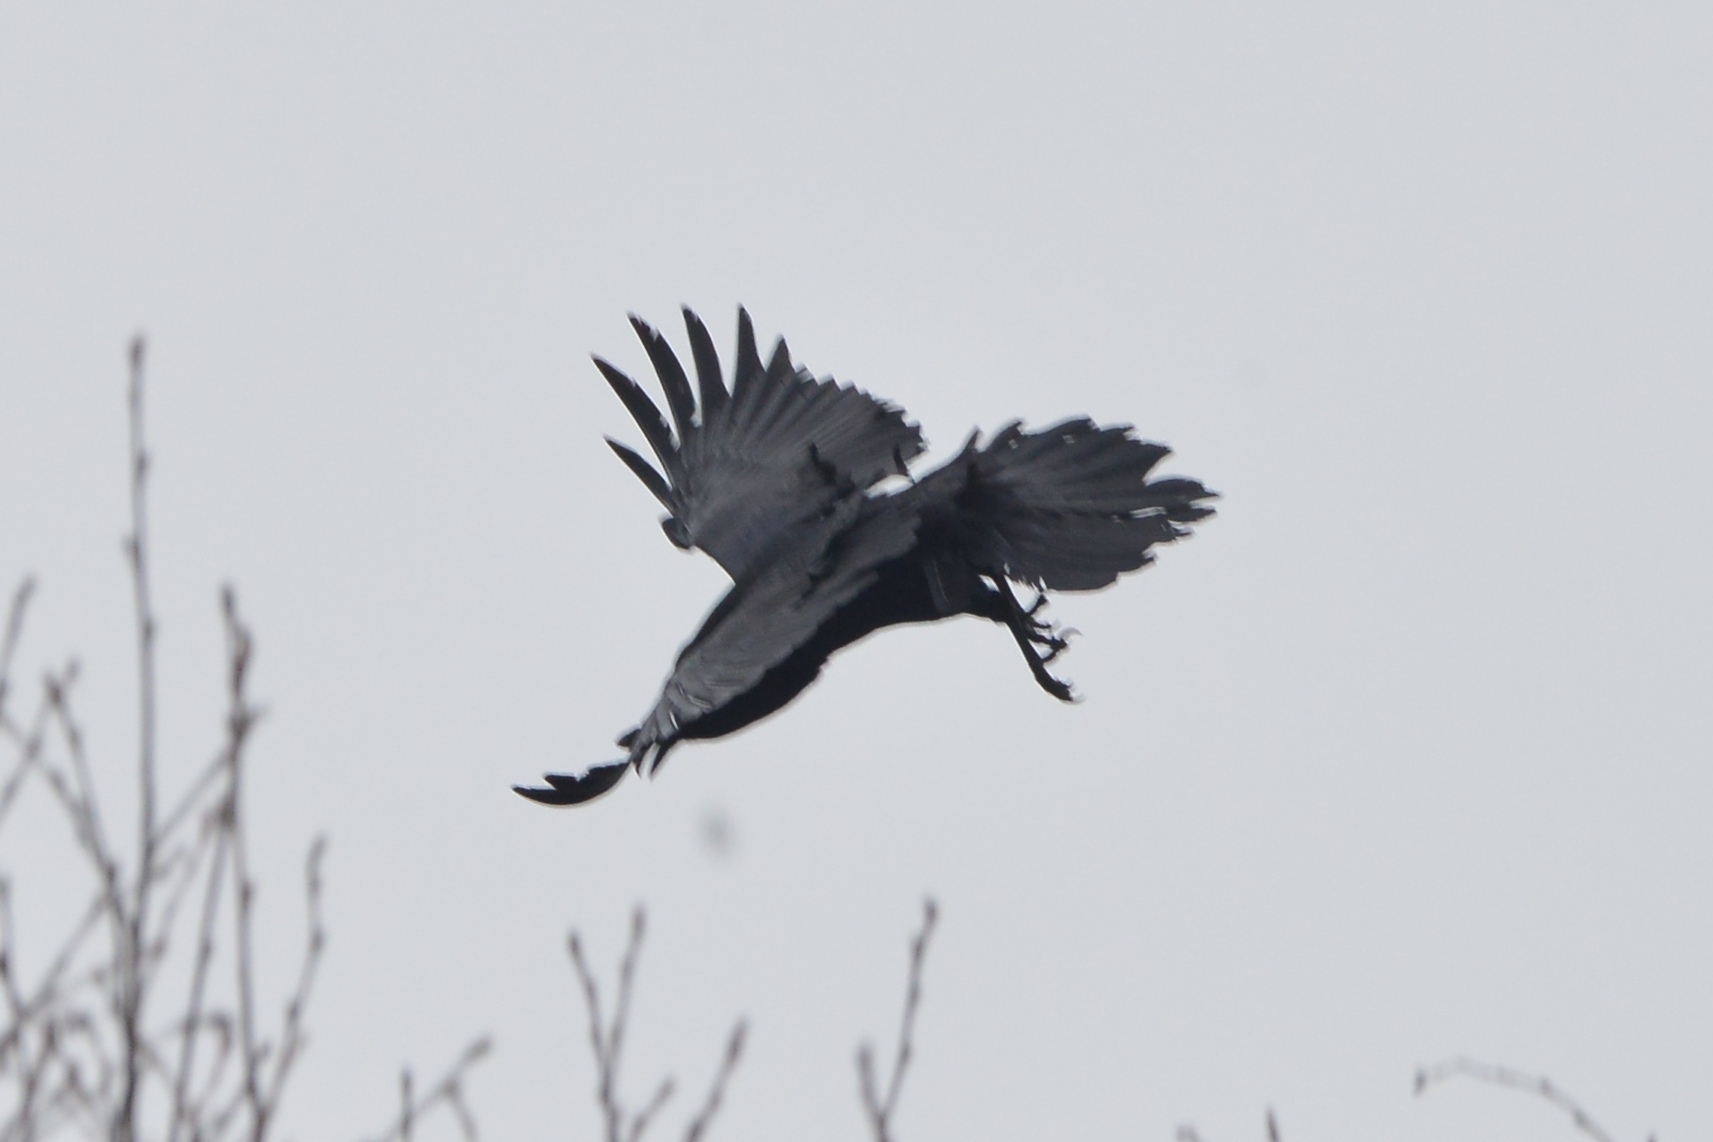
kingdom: Animalia
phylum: Chordata
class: Aves
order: Passeriformes
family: Corvidae
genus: Corvus
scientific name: Corvus corax
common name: Common raven
